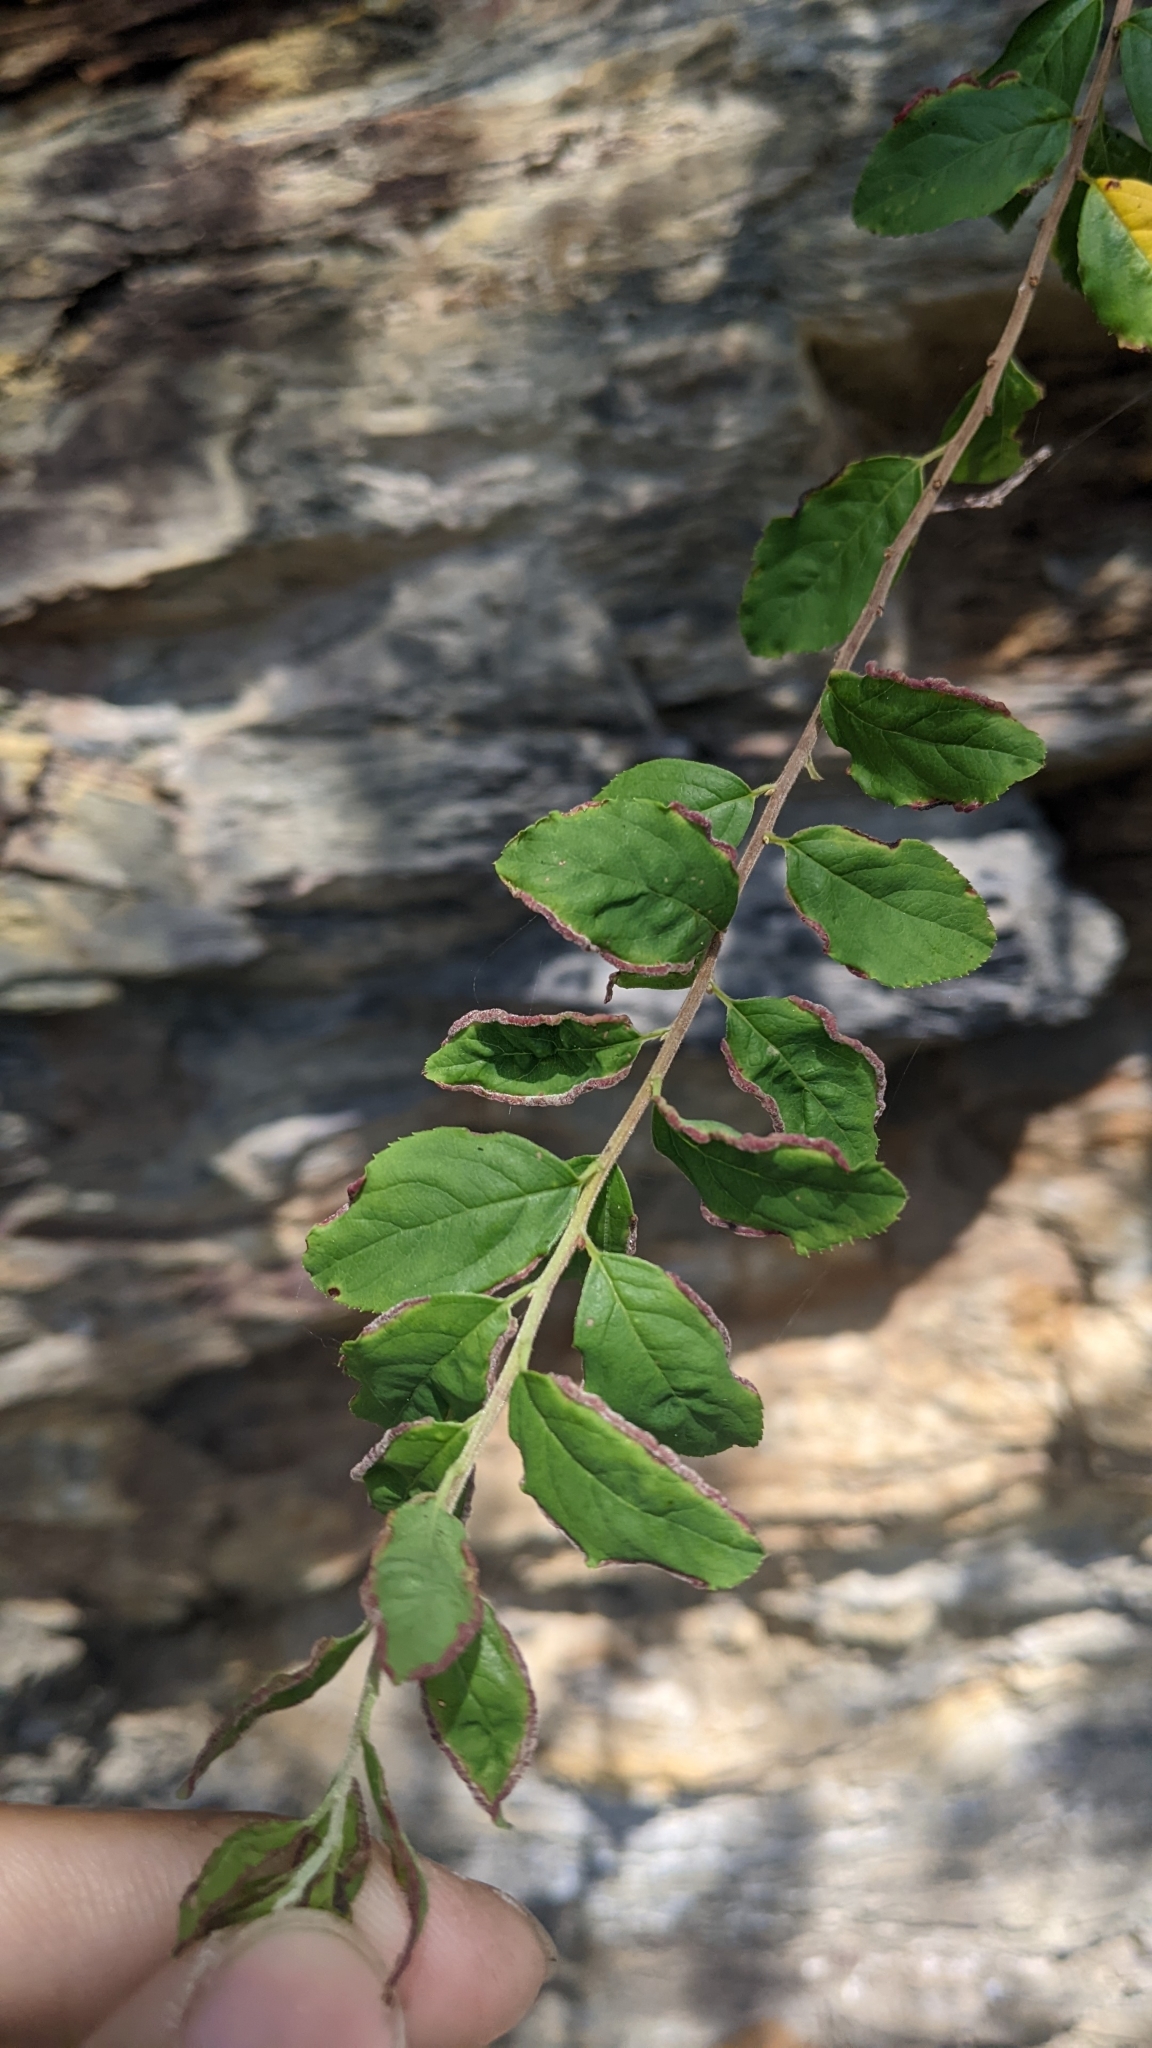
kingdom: Plantae
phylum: Tracheophyta
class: Magnoliopsida
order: Rosales
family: Rosaceae
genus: Spiraea
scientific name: Spiraea prunifolia
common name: Bridal-wreath spiraea
